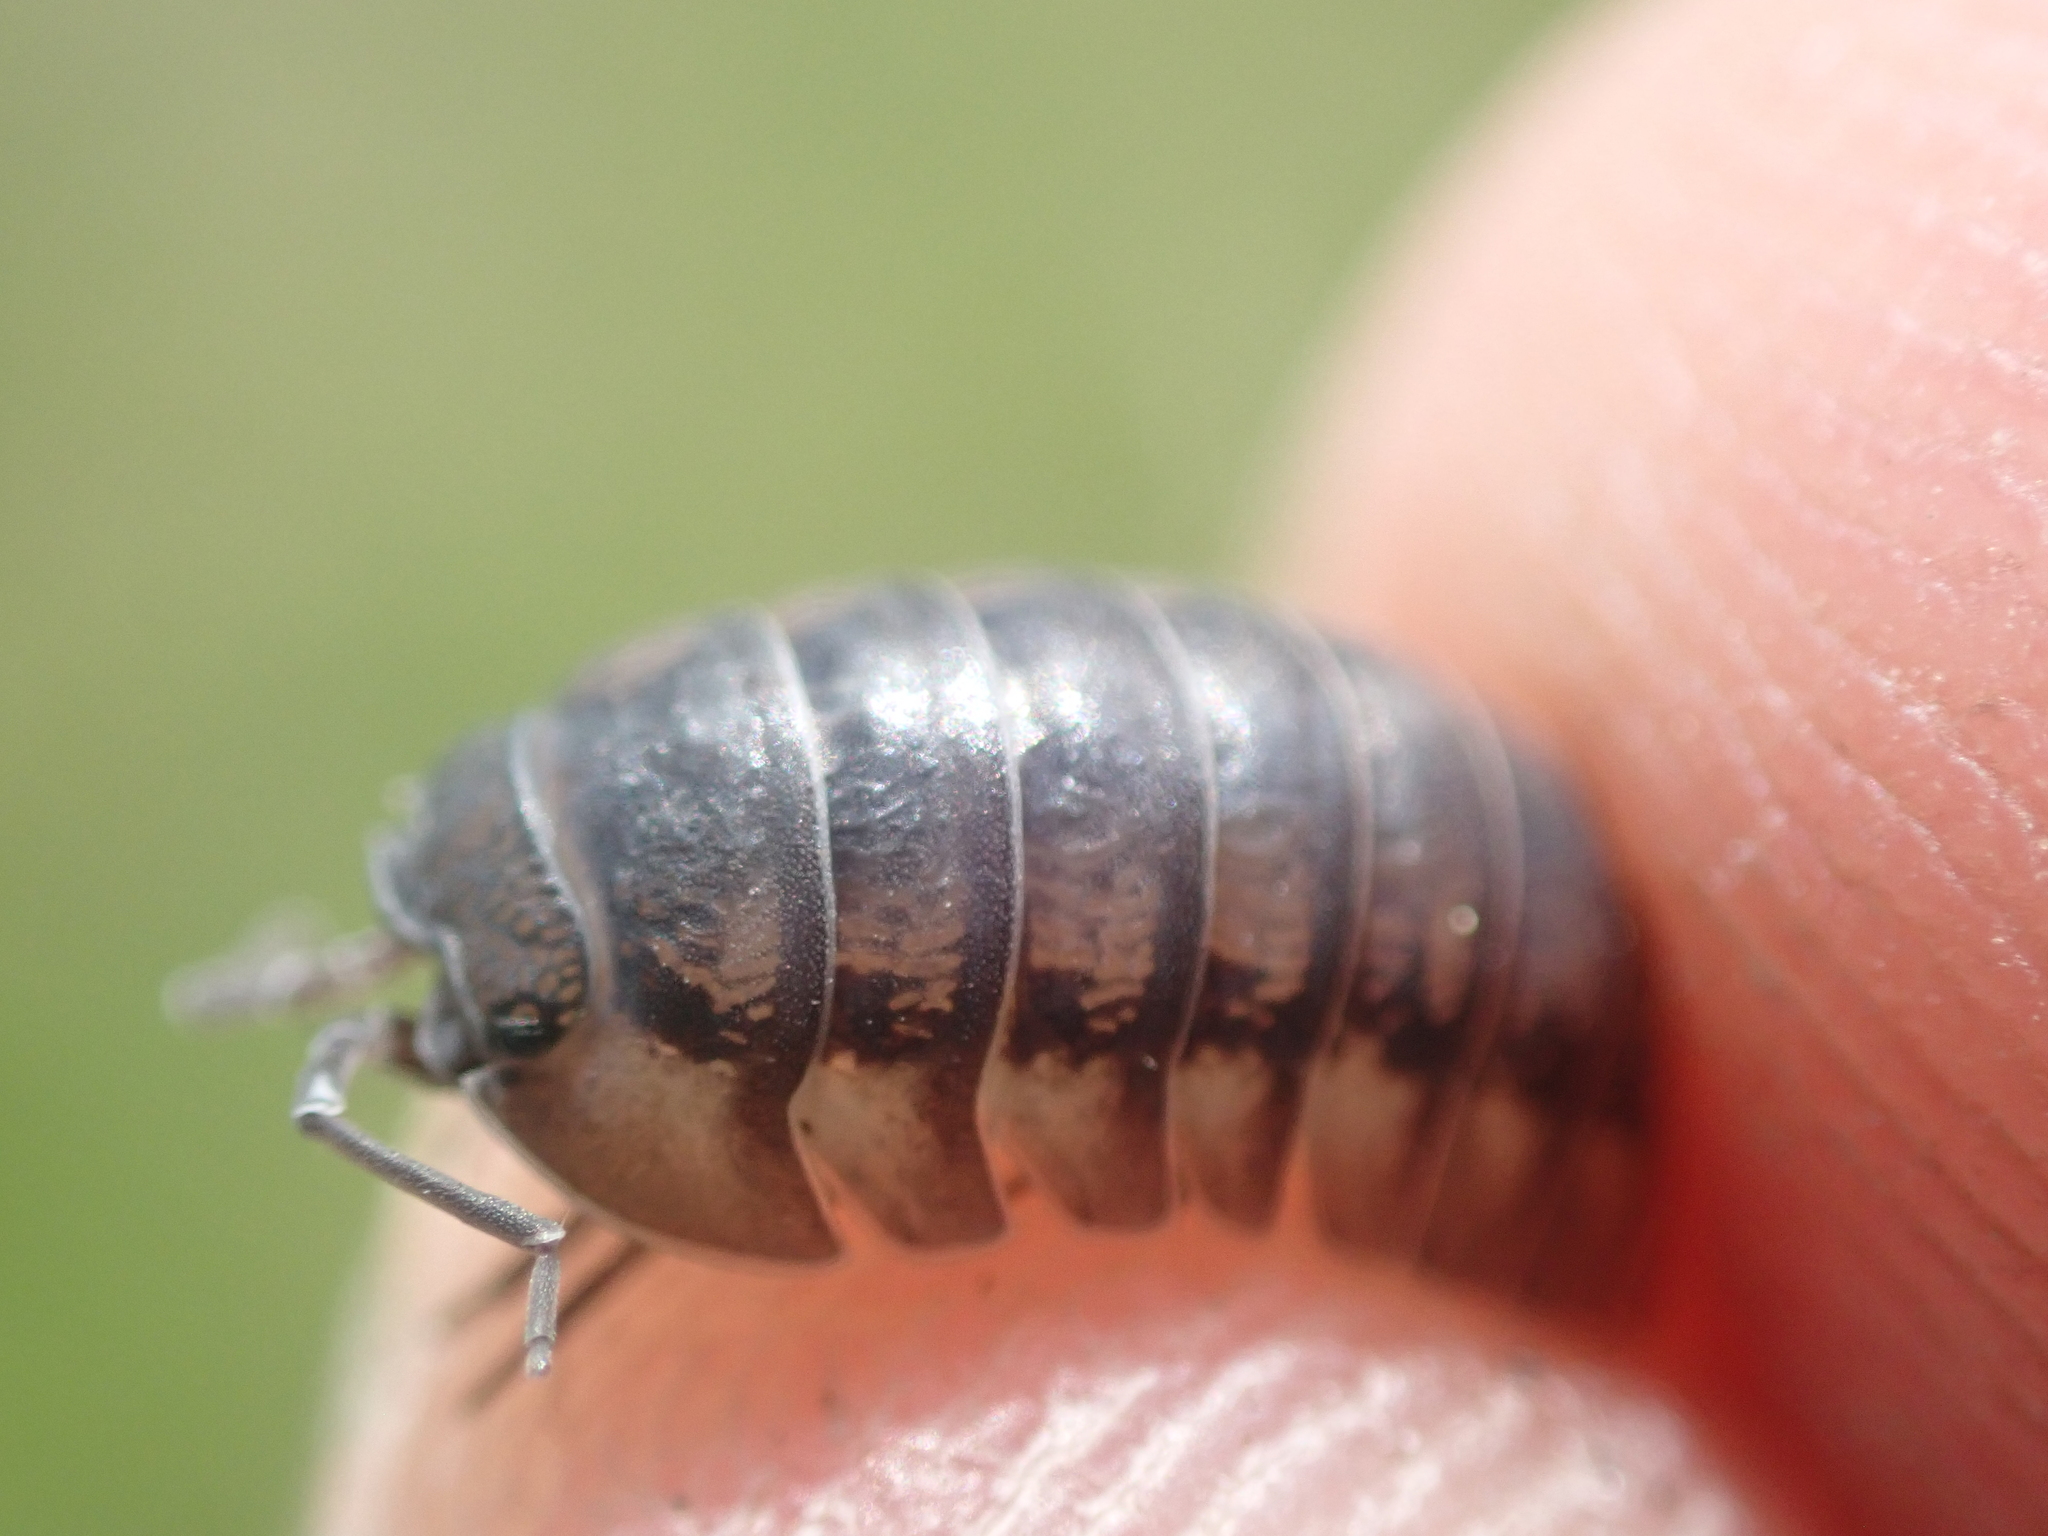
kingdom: Animalia
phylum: Arthropoda
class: Malacostraca
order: Isopoda
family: Armadillidiidae
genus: Armadillidium
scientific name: Armadillidium nasatum
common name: Isopod
